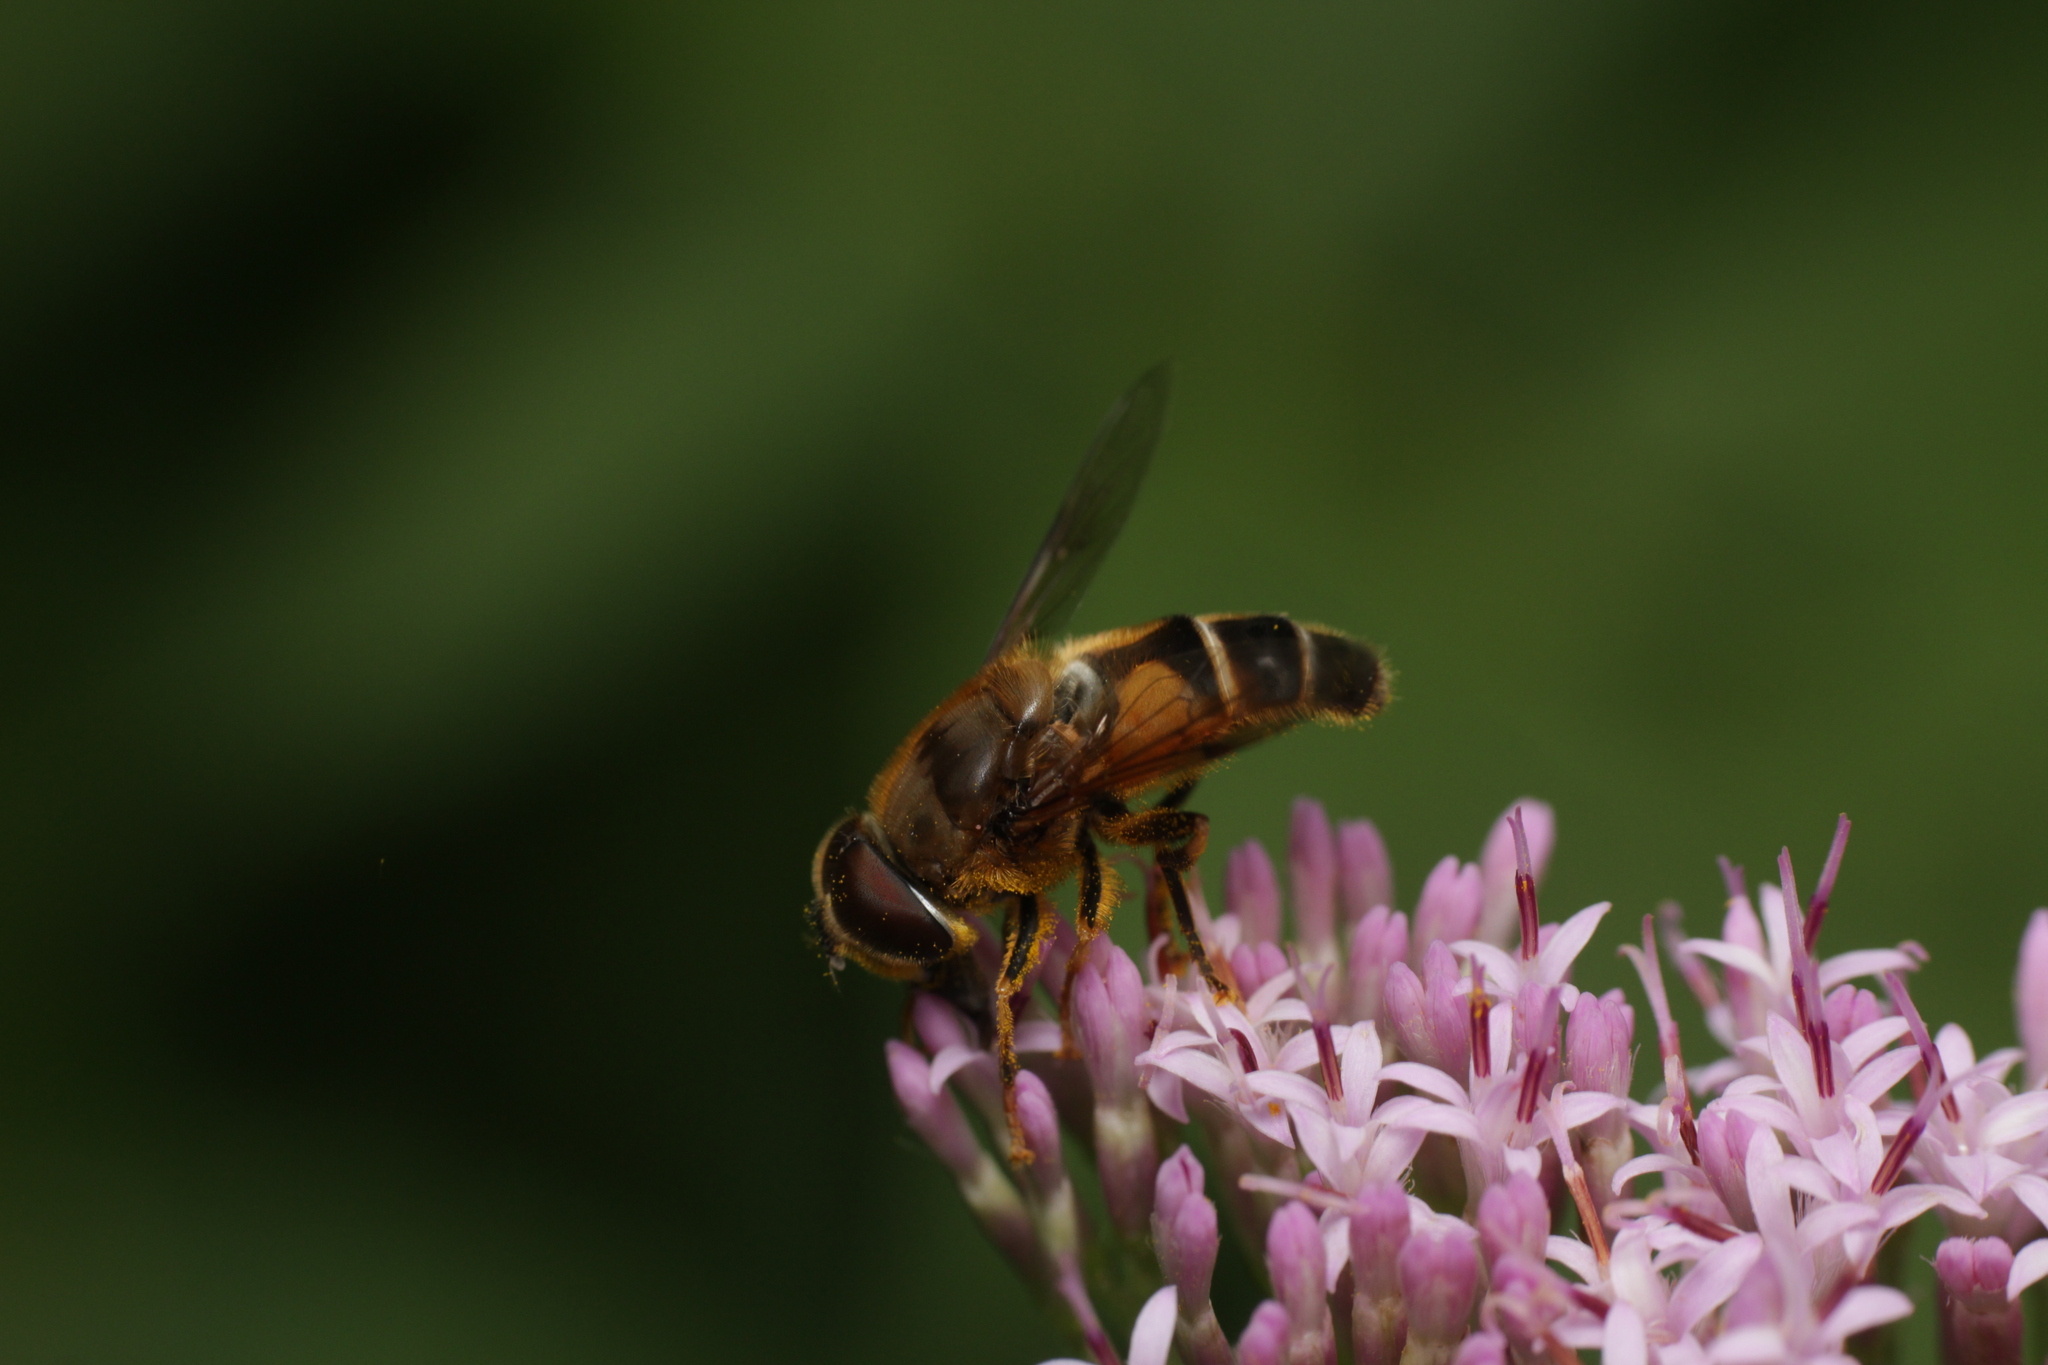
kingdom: Animalia
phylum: Arthropoda
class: Insecta
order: Diptera
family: Syrphidae
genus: Eristalis
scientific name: Eristalis pertinax
